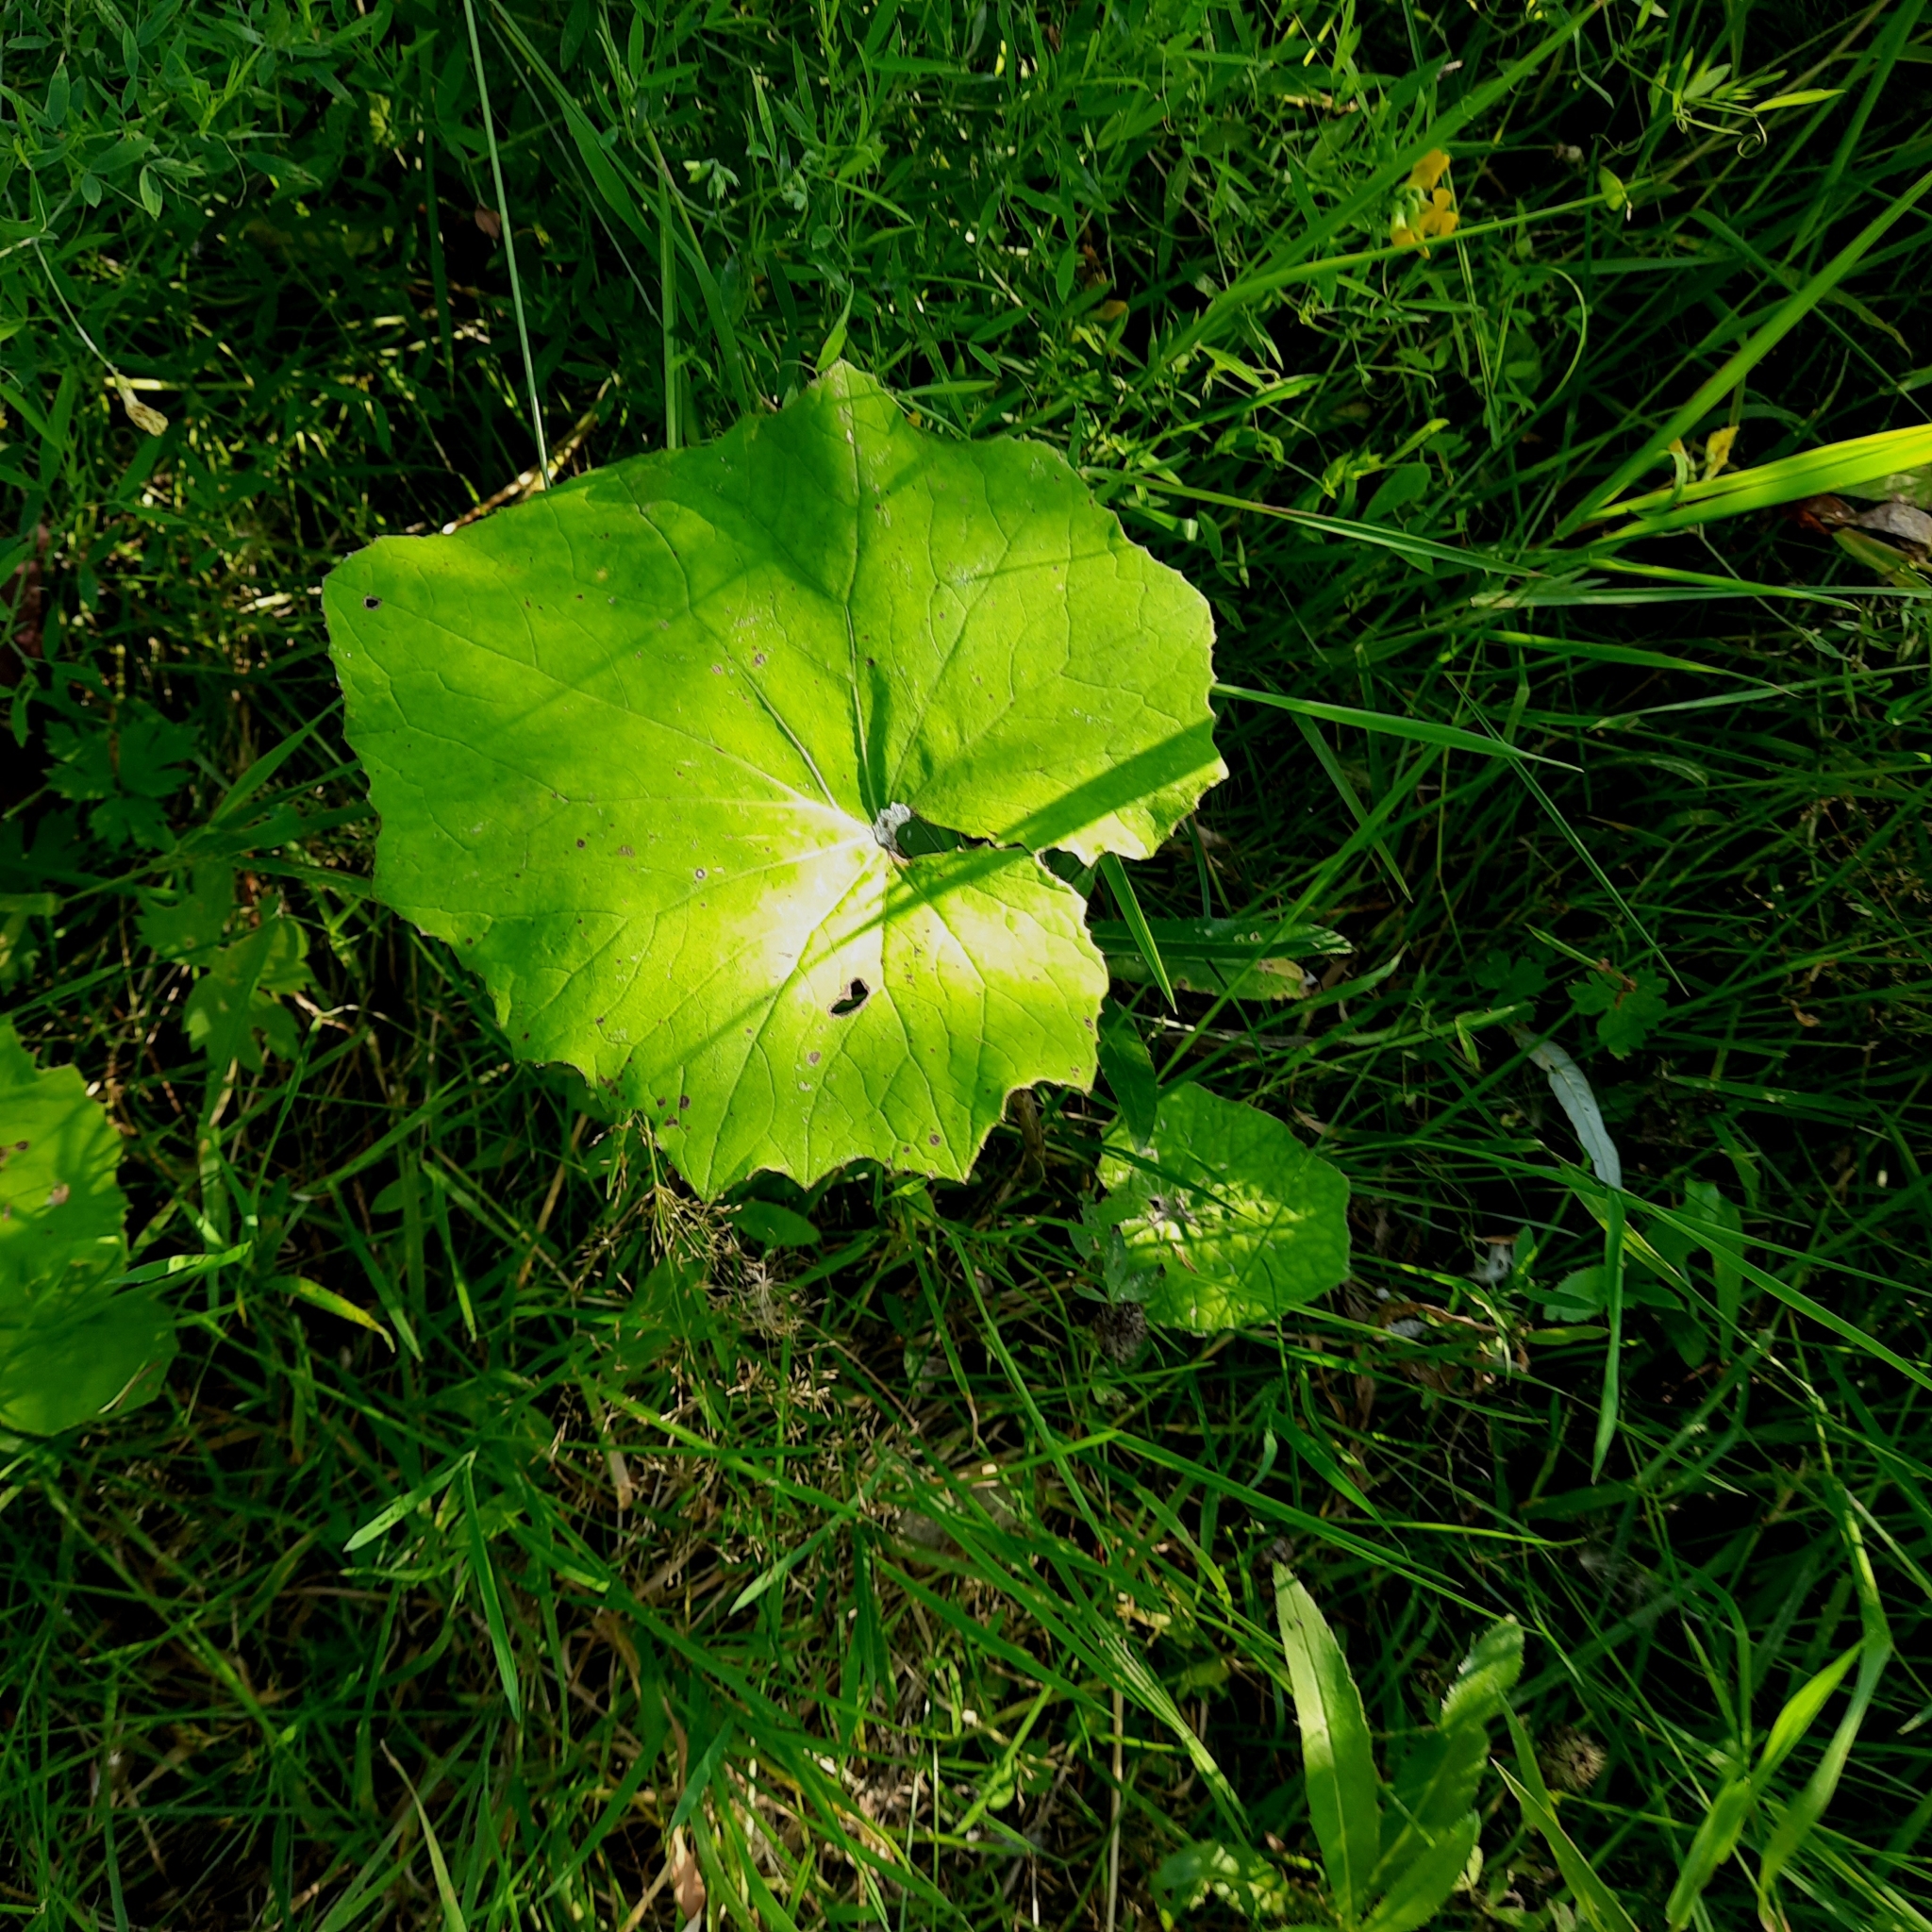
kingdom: Plantae
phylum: Tracheophyta
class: Magnoliopsida
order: Asterales
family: Asteraceae
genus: Tussilago
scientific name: Tussilago farfara
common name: Coltsfoot
